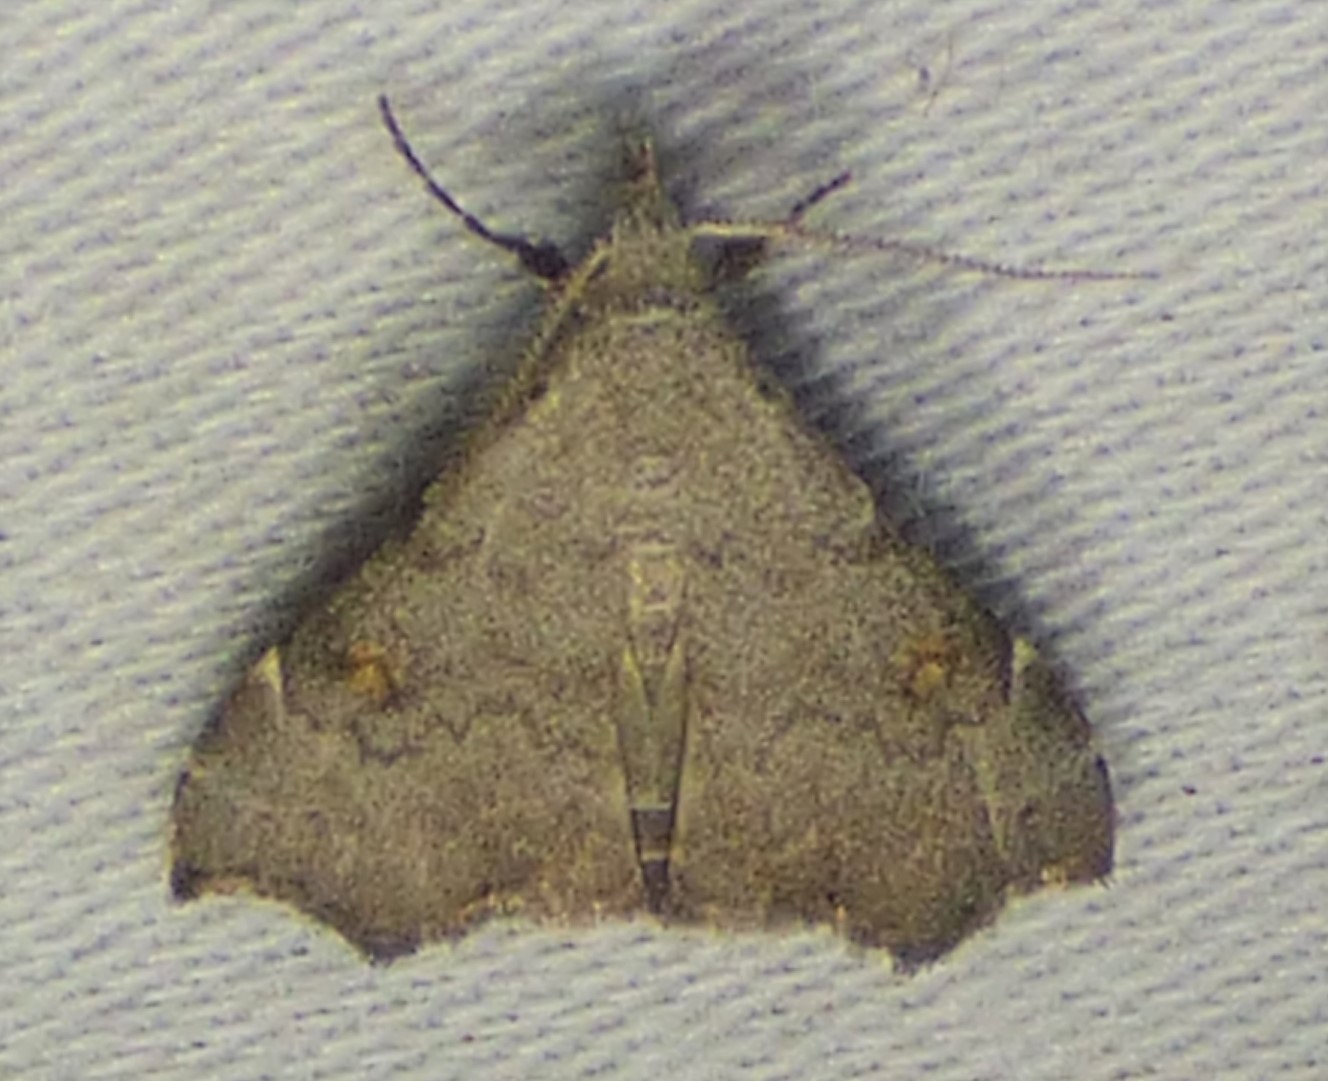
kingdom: Animalia
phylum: Arthropoda
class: Insecta
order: Lepidoptera
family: Erebidae
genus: Redectis
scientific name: Redectis pygmaea
